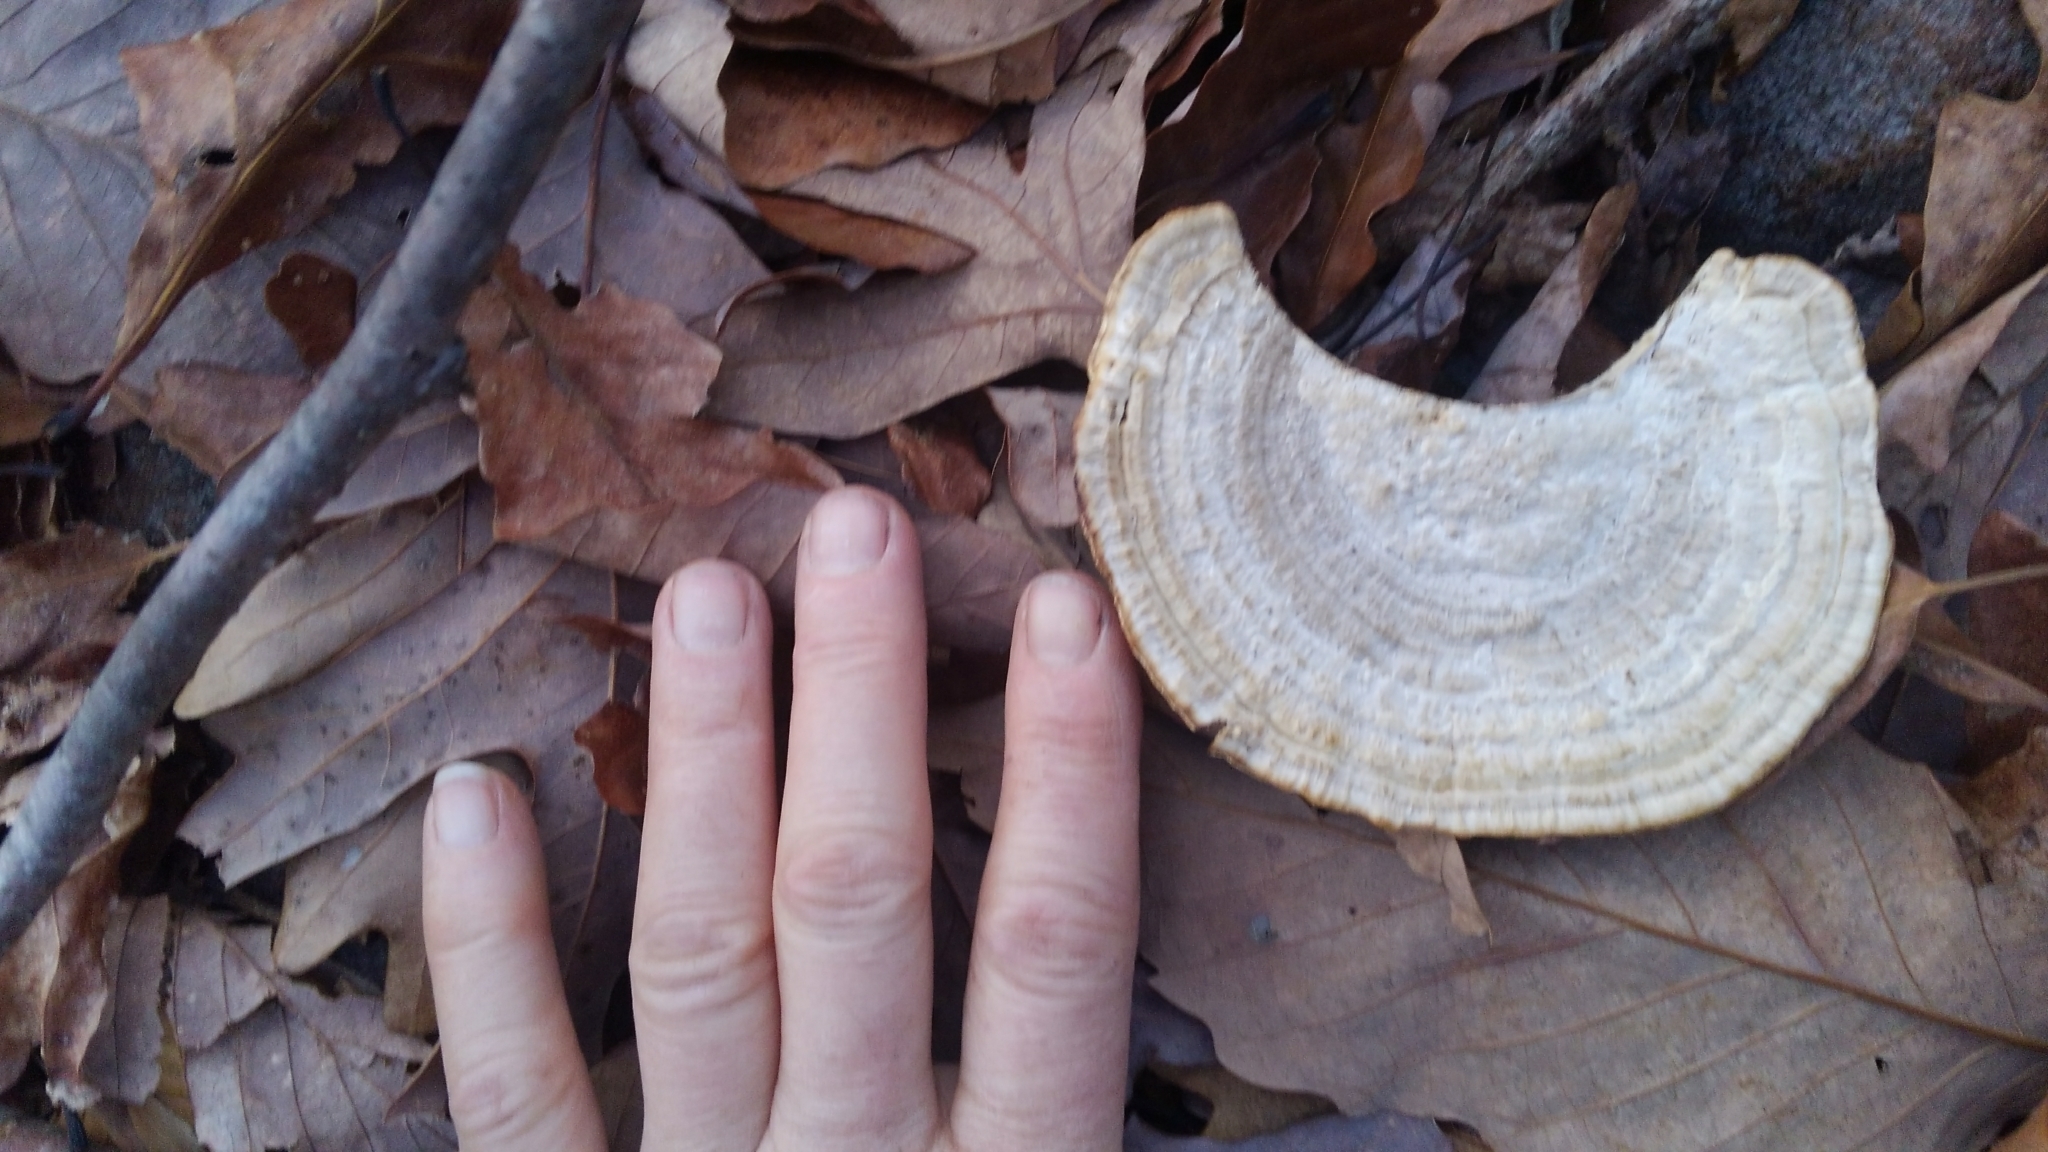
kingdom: Fungi
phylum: Basidiomycota
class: Agaricomycetes
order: Polyporales
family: Polyporaceae
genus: Daedaleopsis
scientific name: Daedaleopsis confragosa
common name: Blushing bracket
